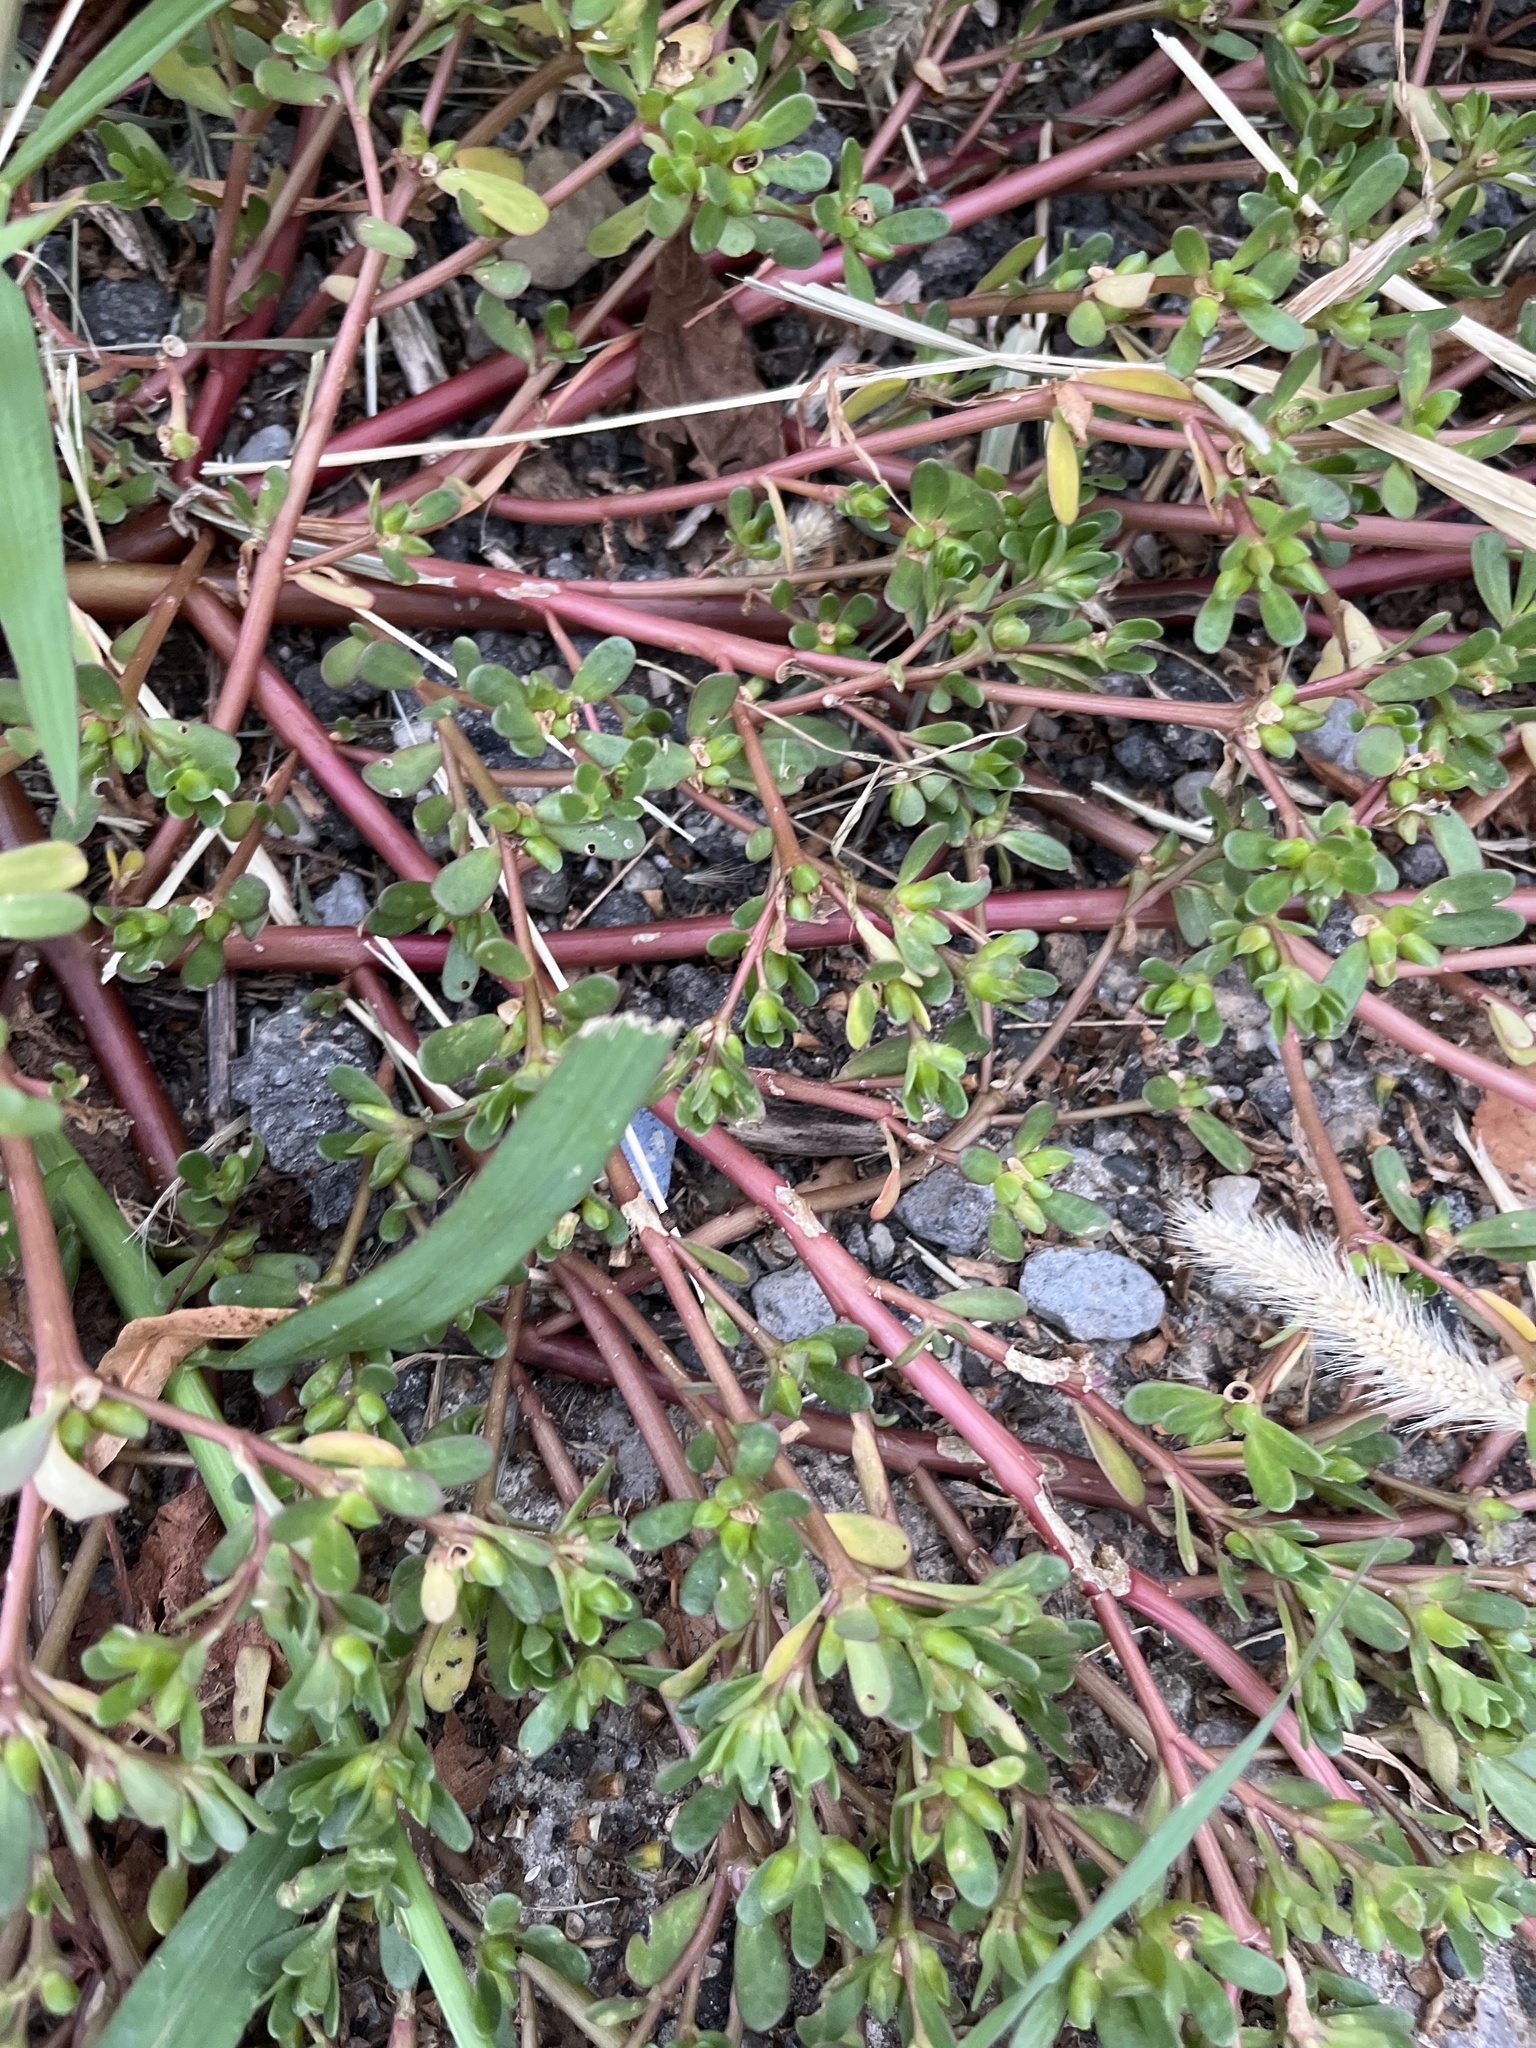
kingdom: Plantae
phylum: Tracheophyta
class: Magnoliopsida
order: Caryophyllales
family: Portulacaceae
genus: Portulaca
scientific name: Portulaca oleracea
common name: Common purslane
